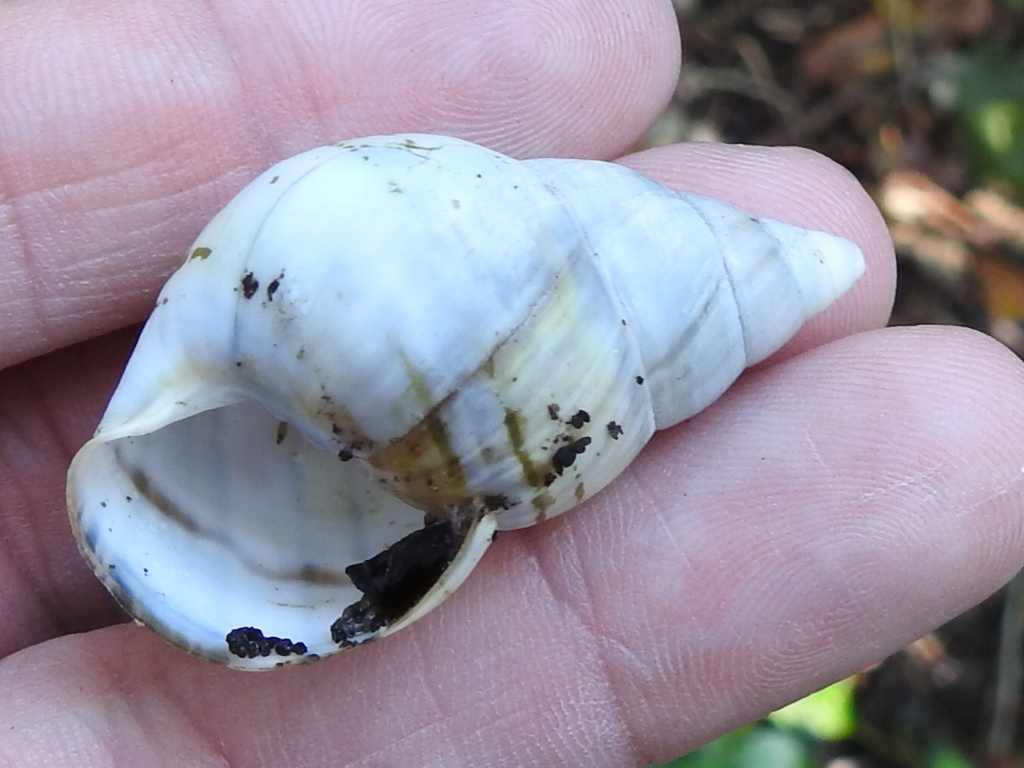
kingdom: Animalia
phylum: Mollusca
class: Gastropoda
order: Stylommatophora
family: Orthalicidae
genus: Liguus
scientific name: Liguus fasciatus
